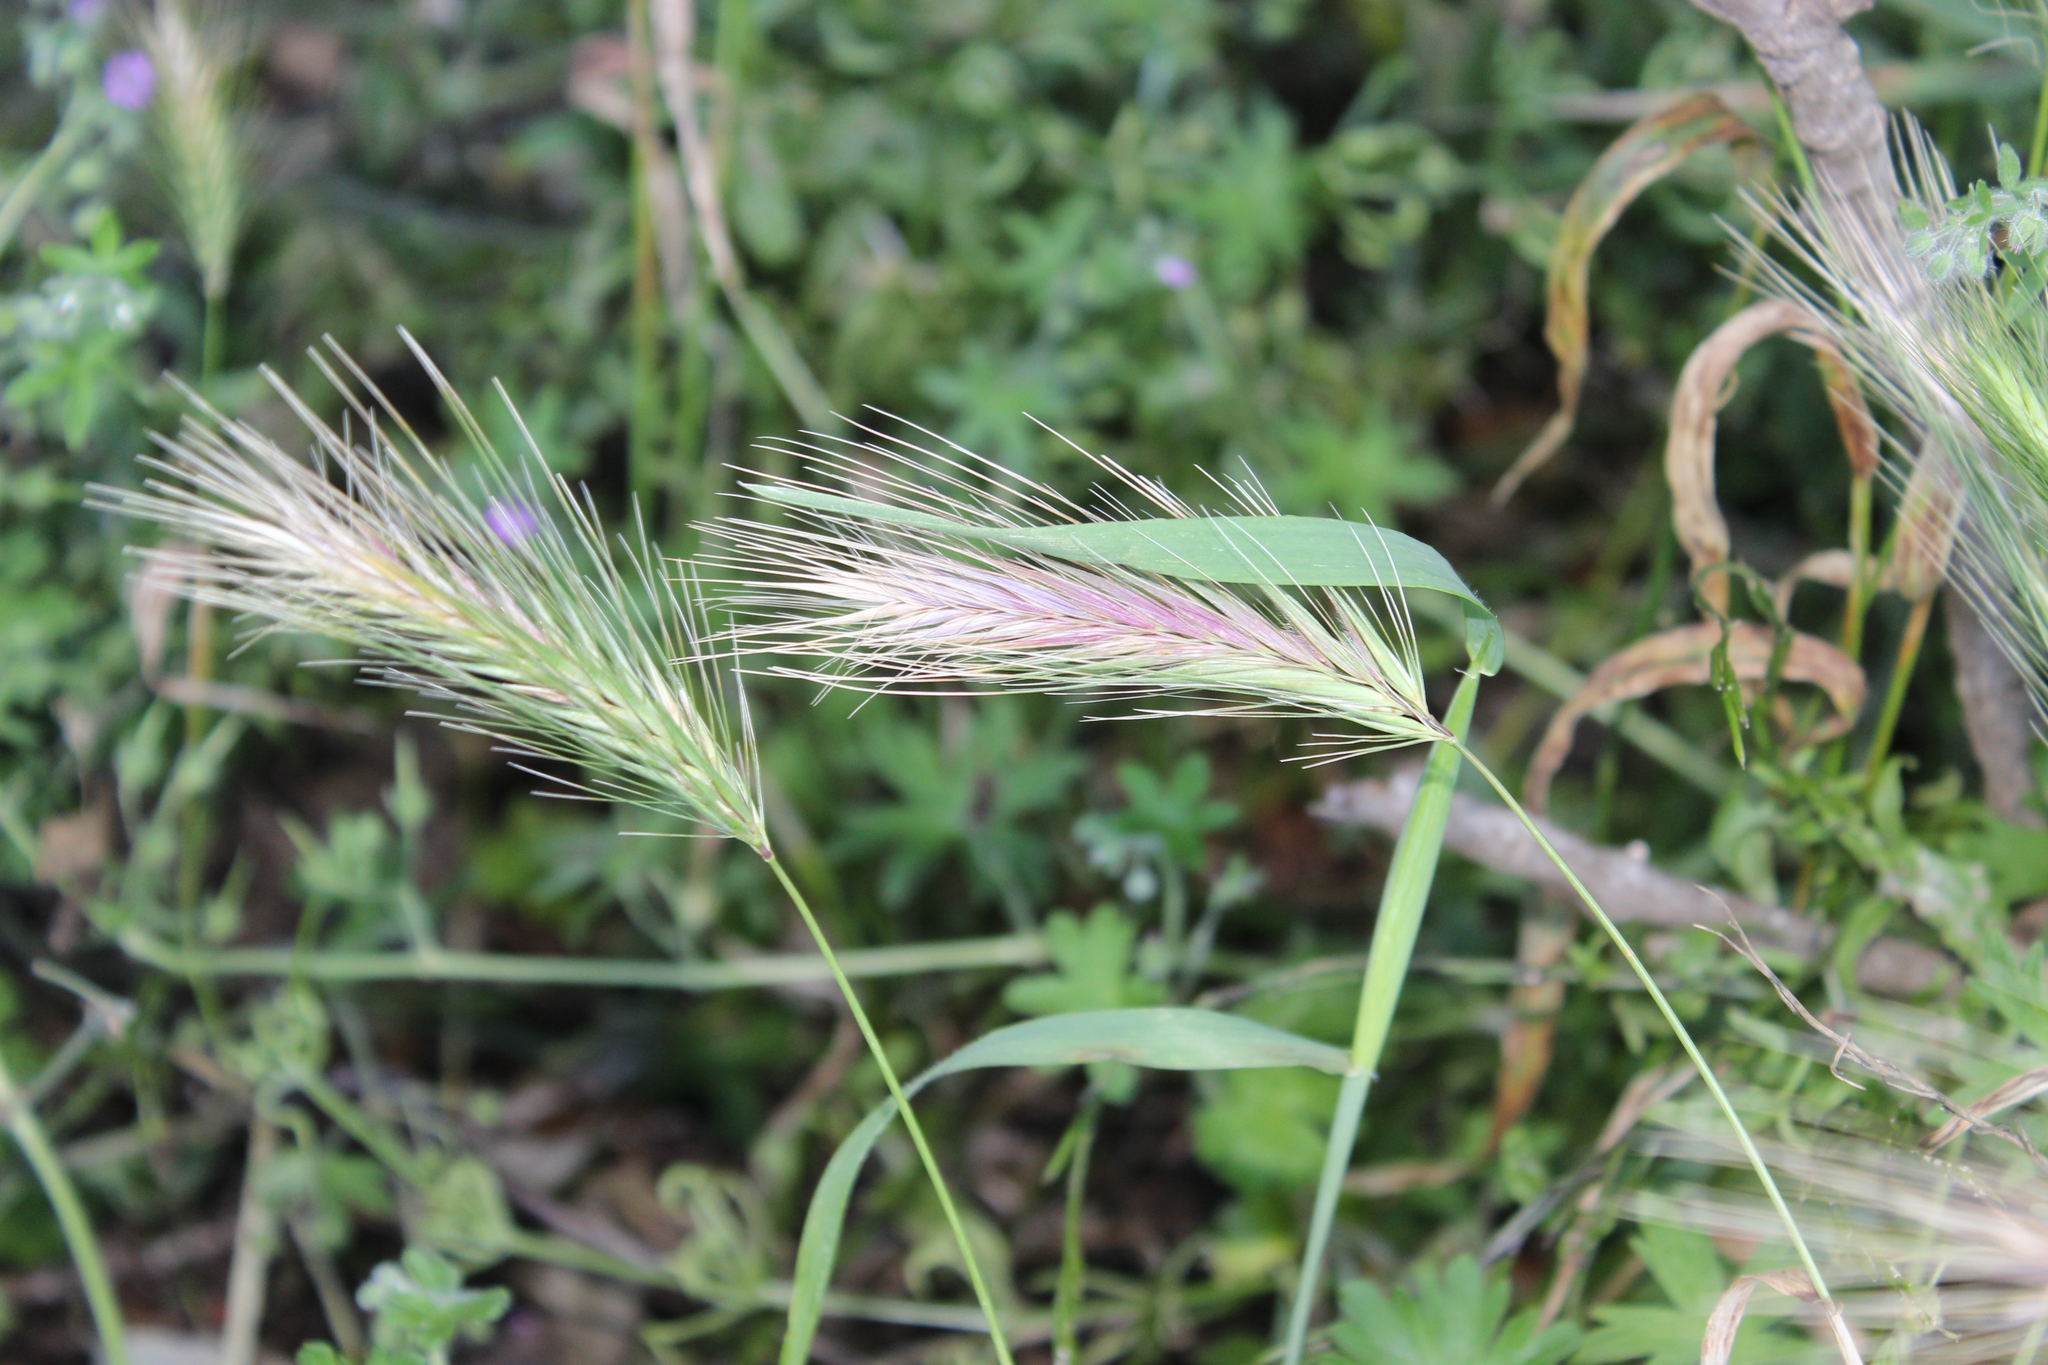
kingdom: Plantae
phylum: Tracheophyta
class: Liliopsida
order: Poales
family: Poaceae
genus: Hordeum
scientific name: Hordeum murinum
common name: Wall barley
